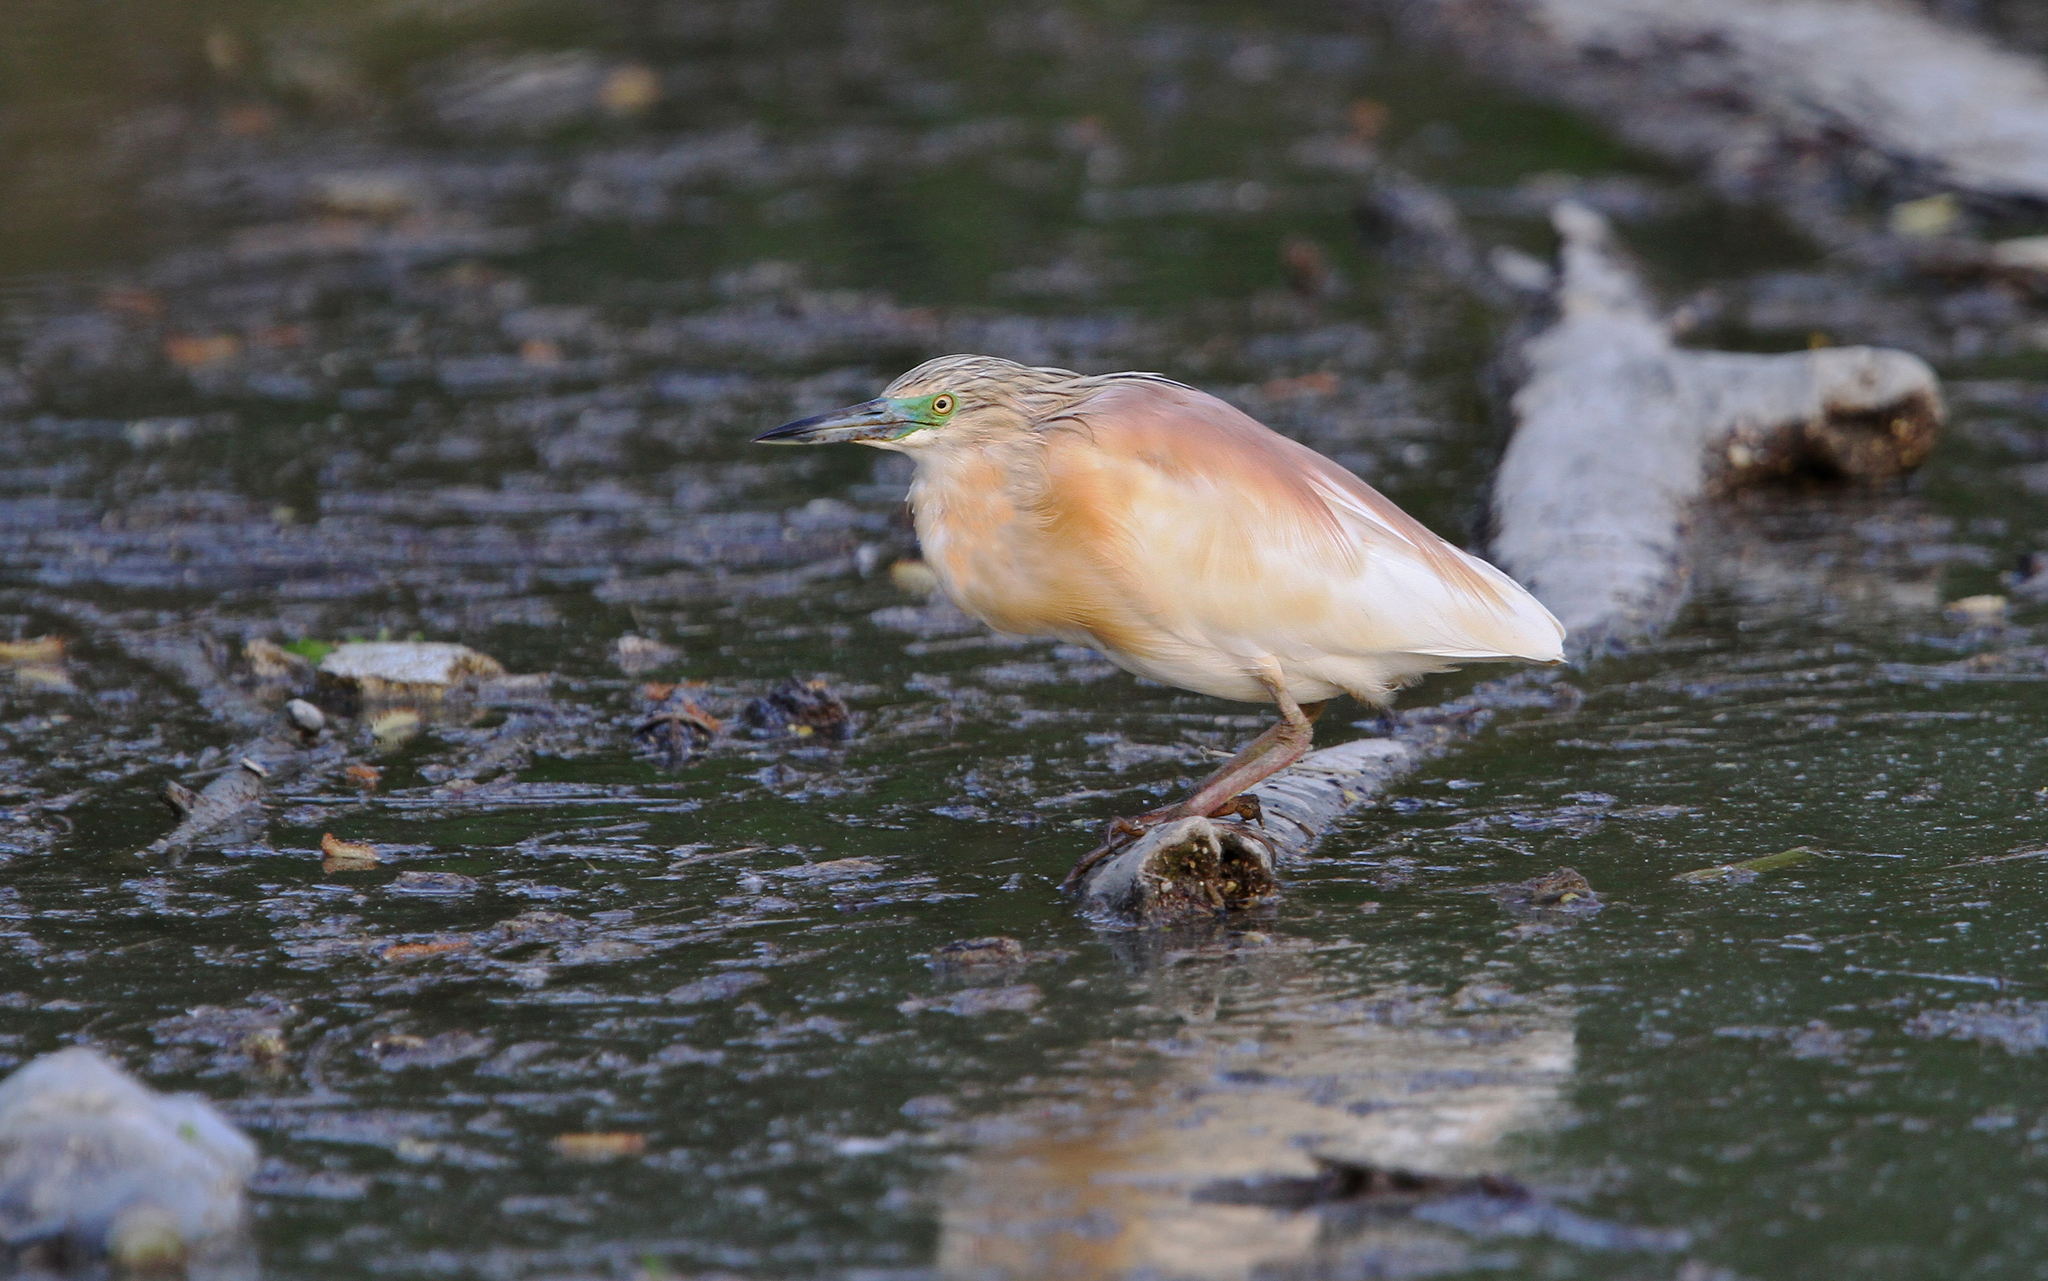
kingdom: Animalia
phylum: Chordata
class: Aves
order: Pelecaniformes
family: Ardeidae
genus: Ardeola
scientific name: Ardeola ralloides
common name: Squacco heron
